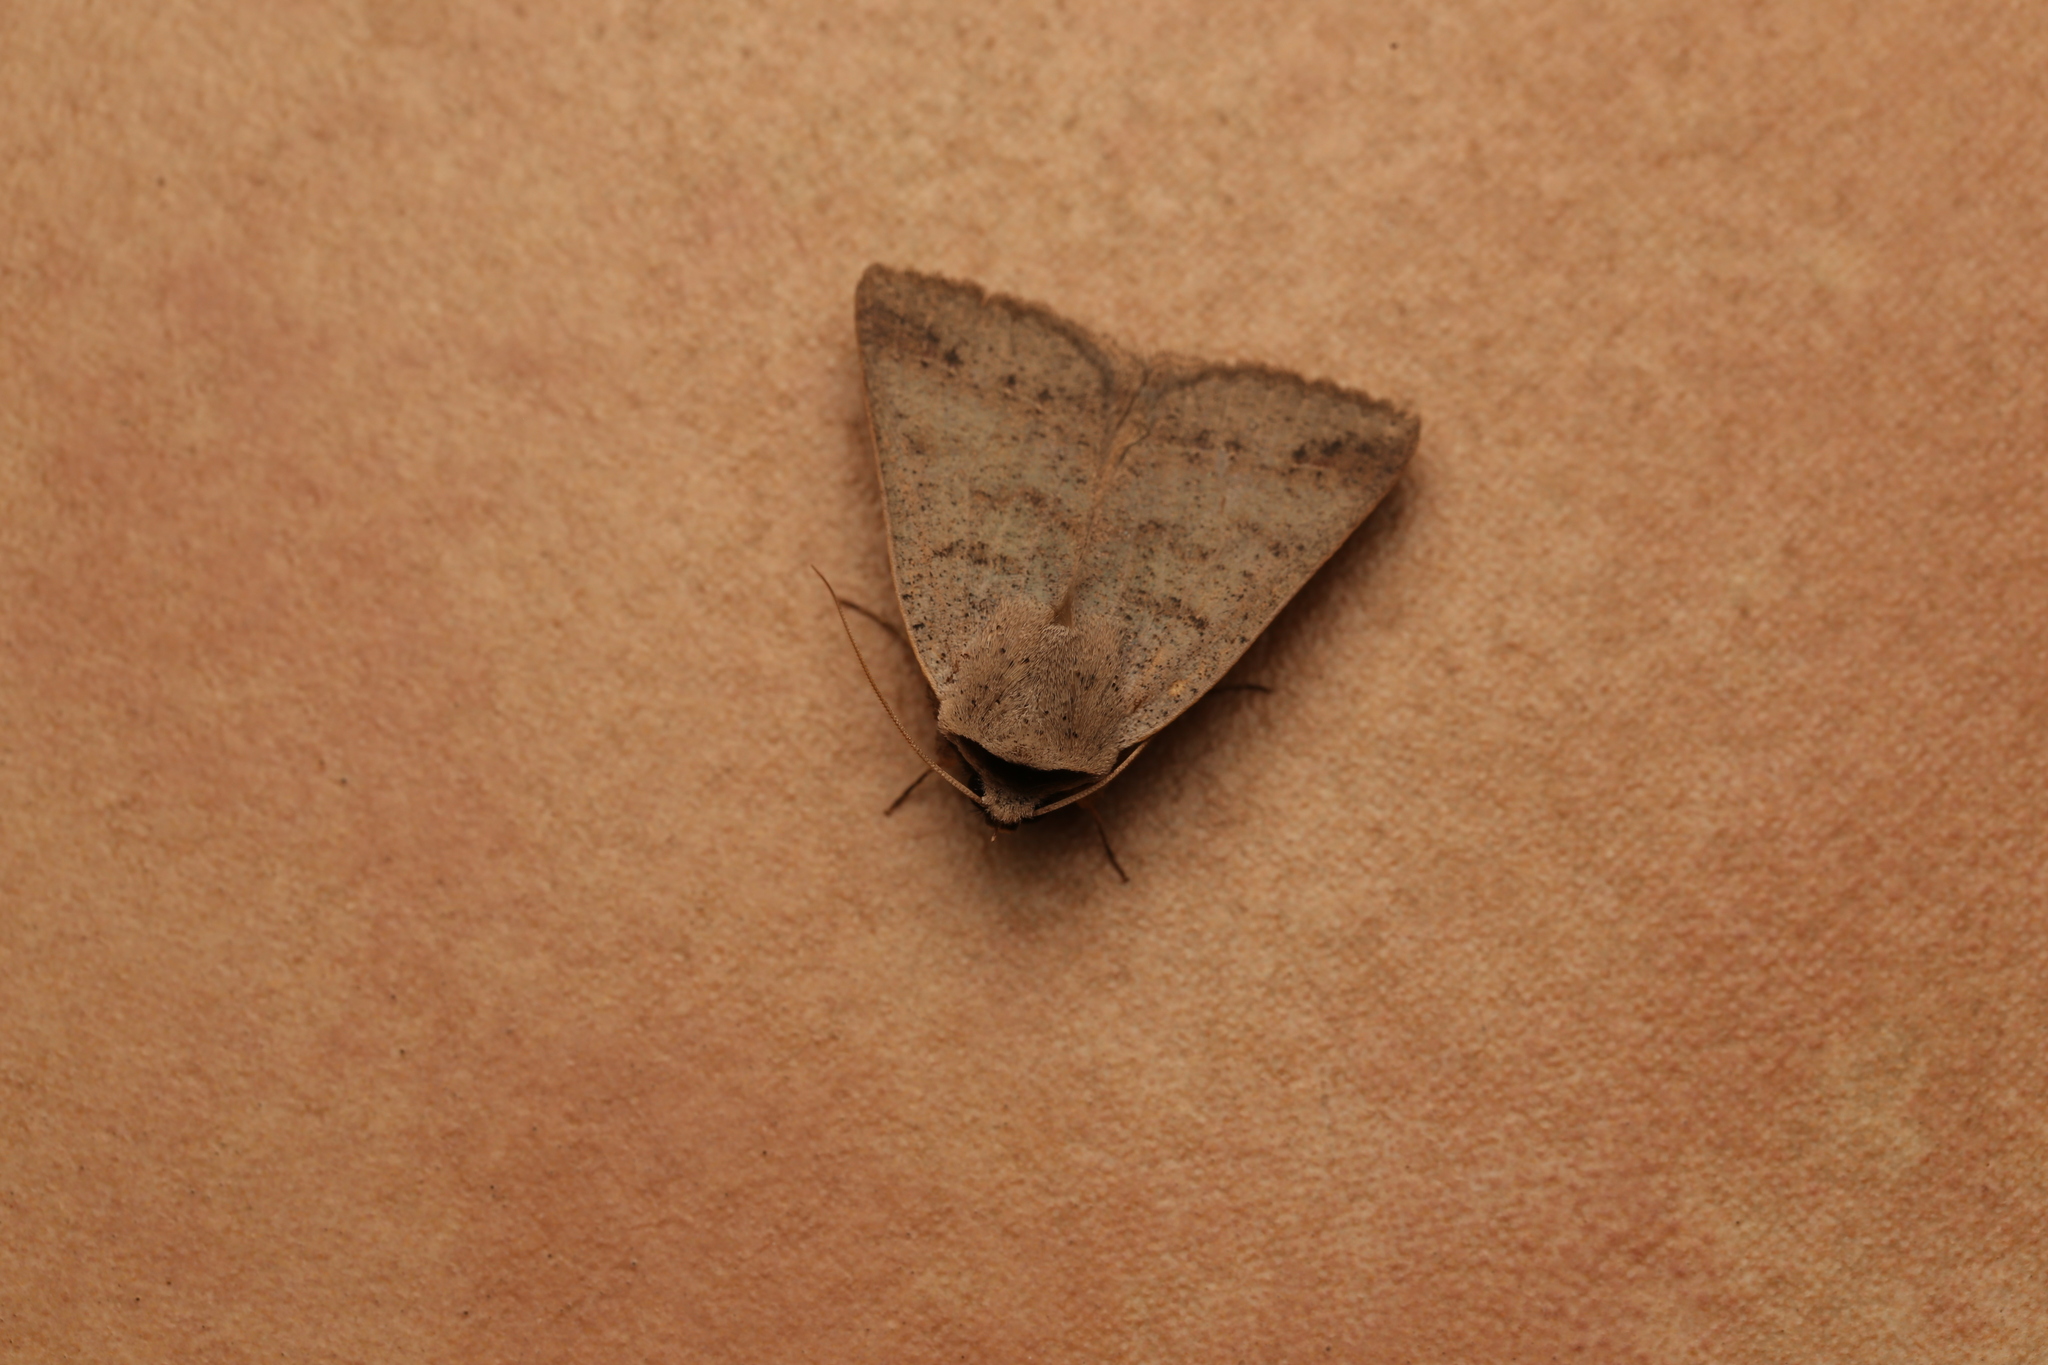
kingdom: Animalia
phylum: Arthropoda
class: Insecta
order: Lepidoptera
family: Erebidae
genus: Pantydia
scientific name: Pantydia sparsa
